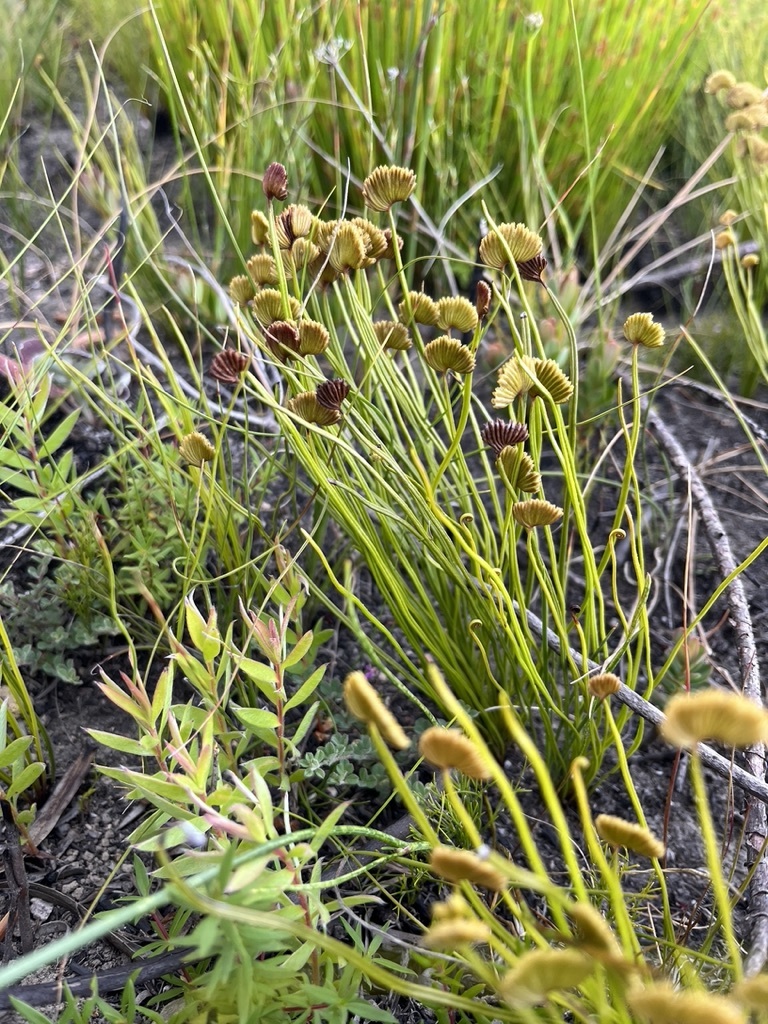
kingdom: Plantae
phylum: Tracheophyta
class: Polypodiopsida
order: Schizaeales
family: Schizaeaceae
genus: Schizaea
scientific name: Schizaea pectinata
